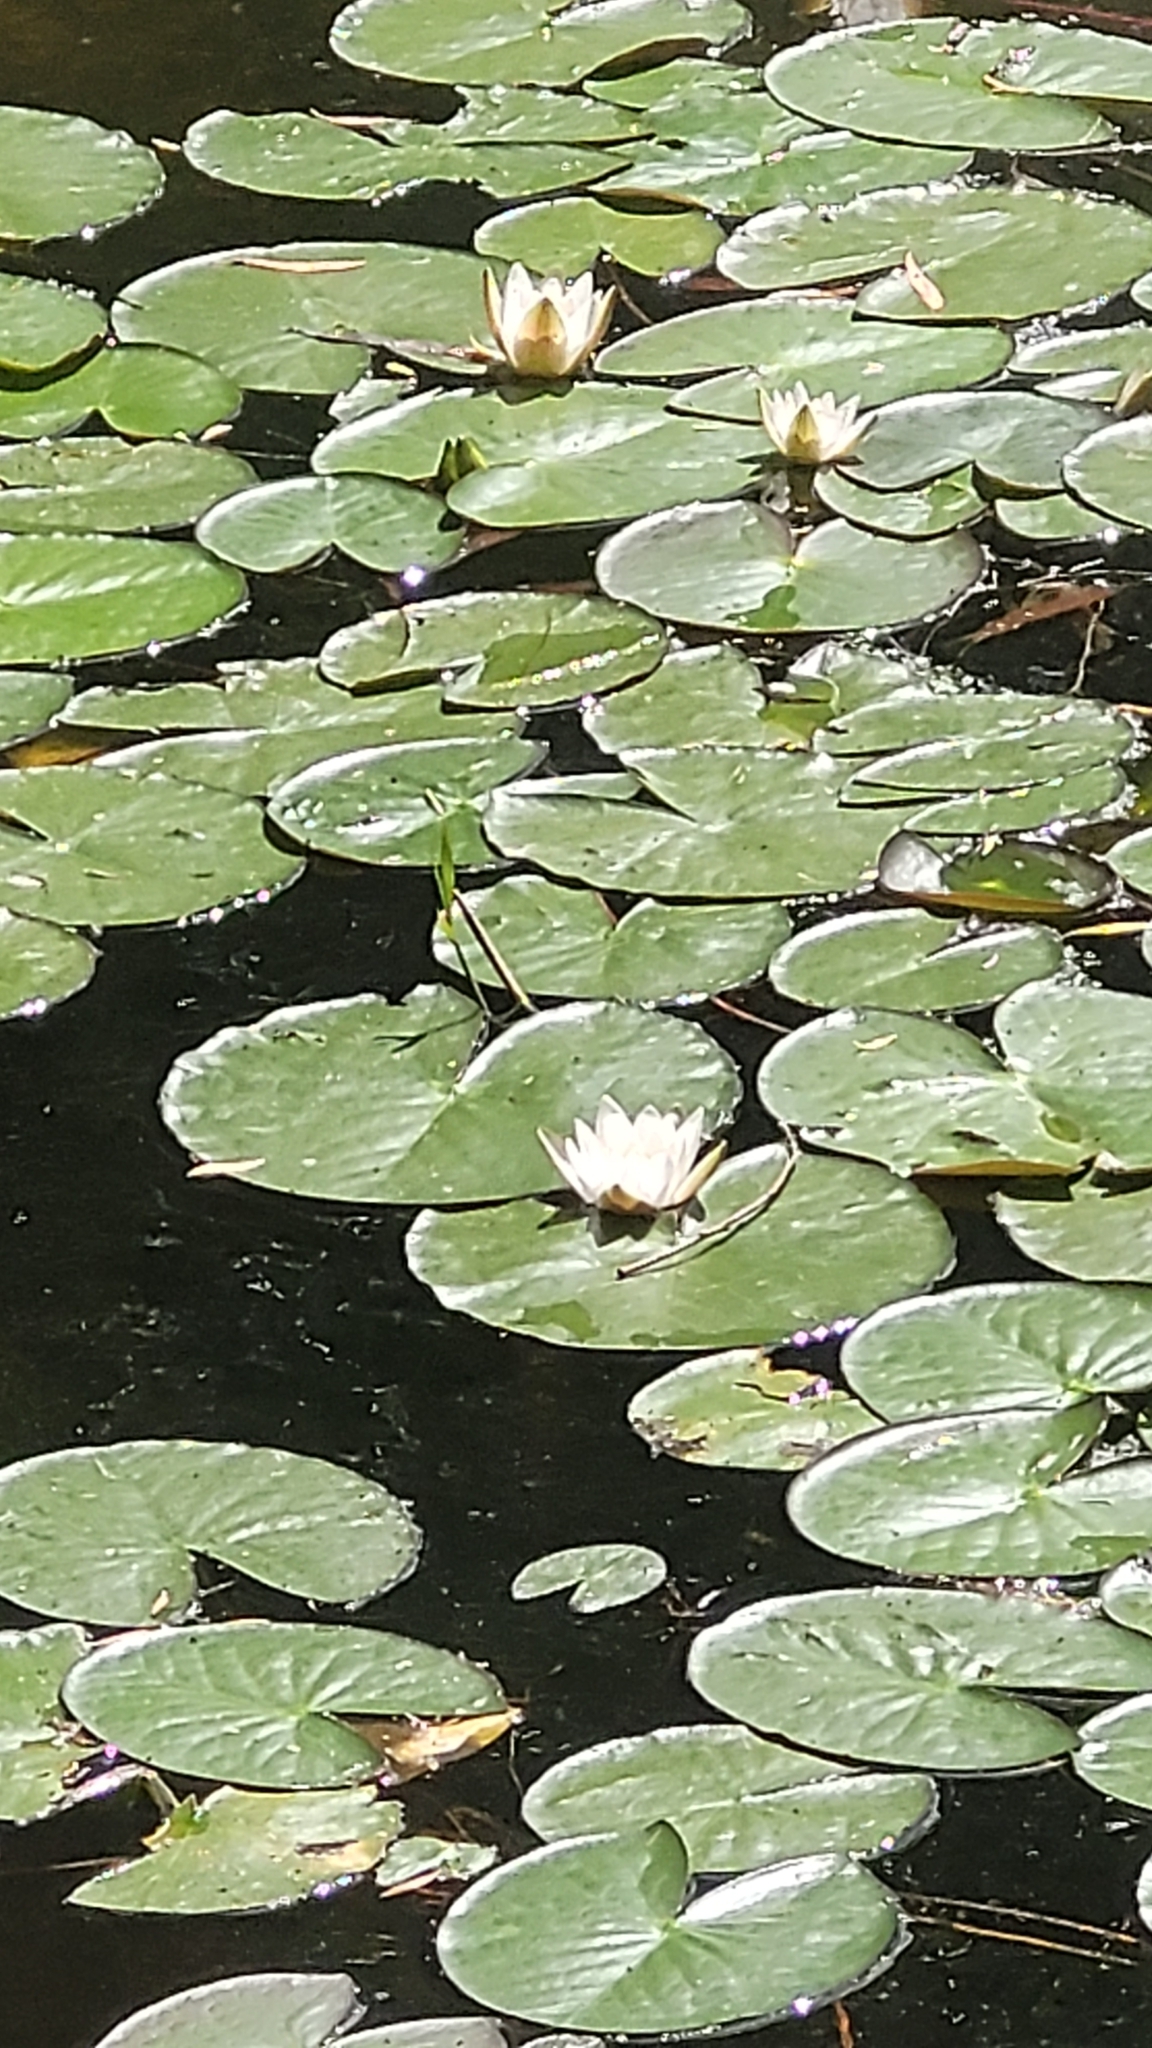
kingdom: Plantae
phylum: Tracheophyta
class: Magnoliopsida
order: Nymphaeales
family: Nymphaeaceae
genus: Nymphaea
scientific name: Nymphaea alba
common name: White water-lily
